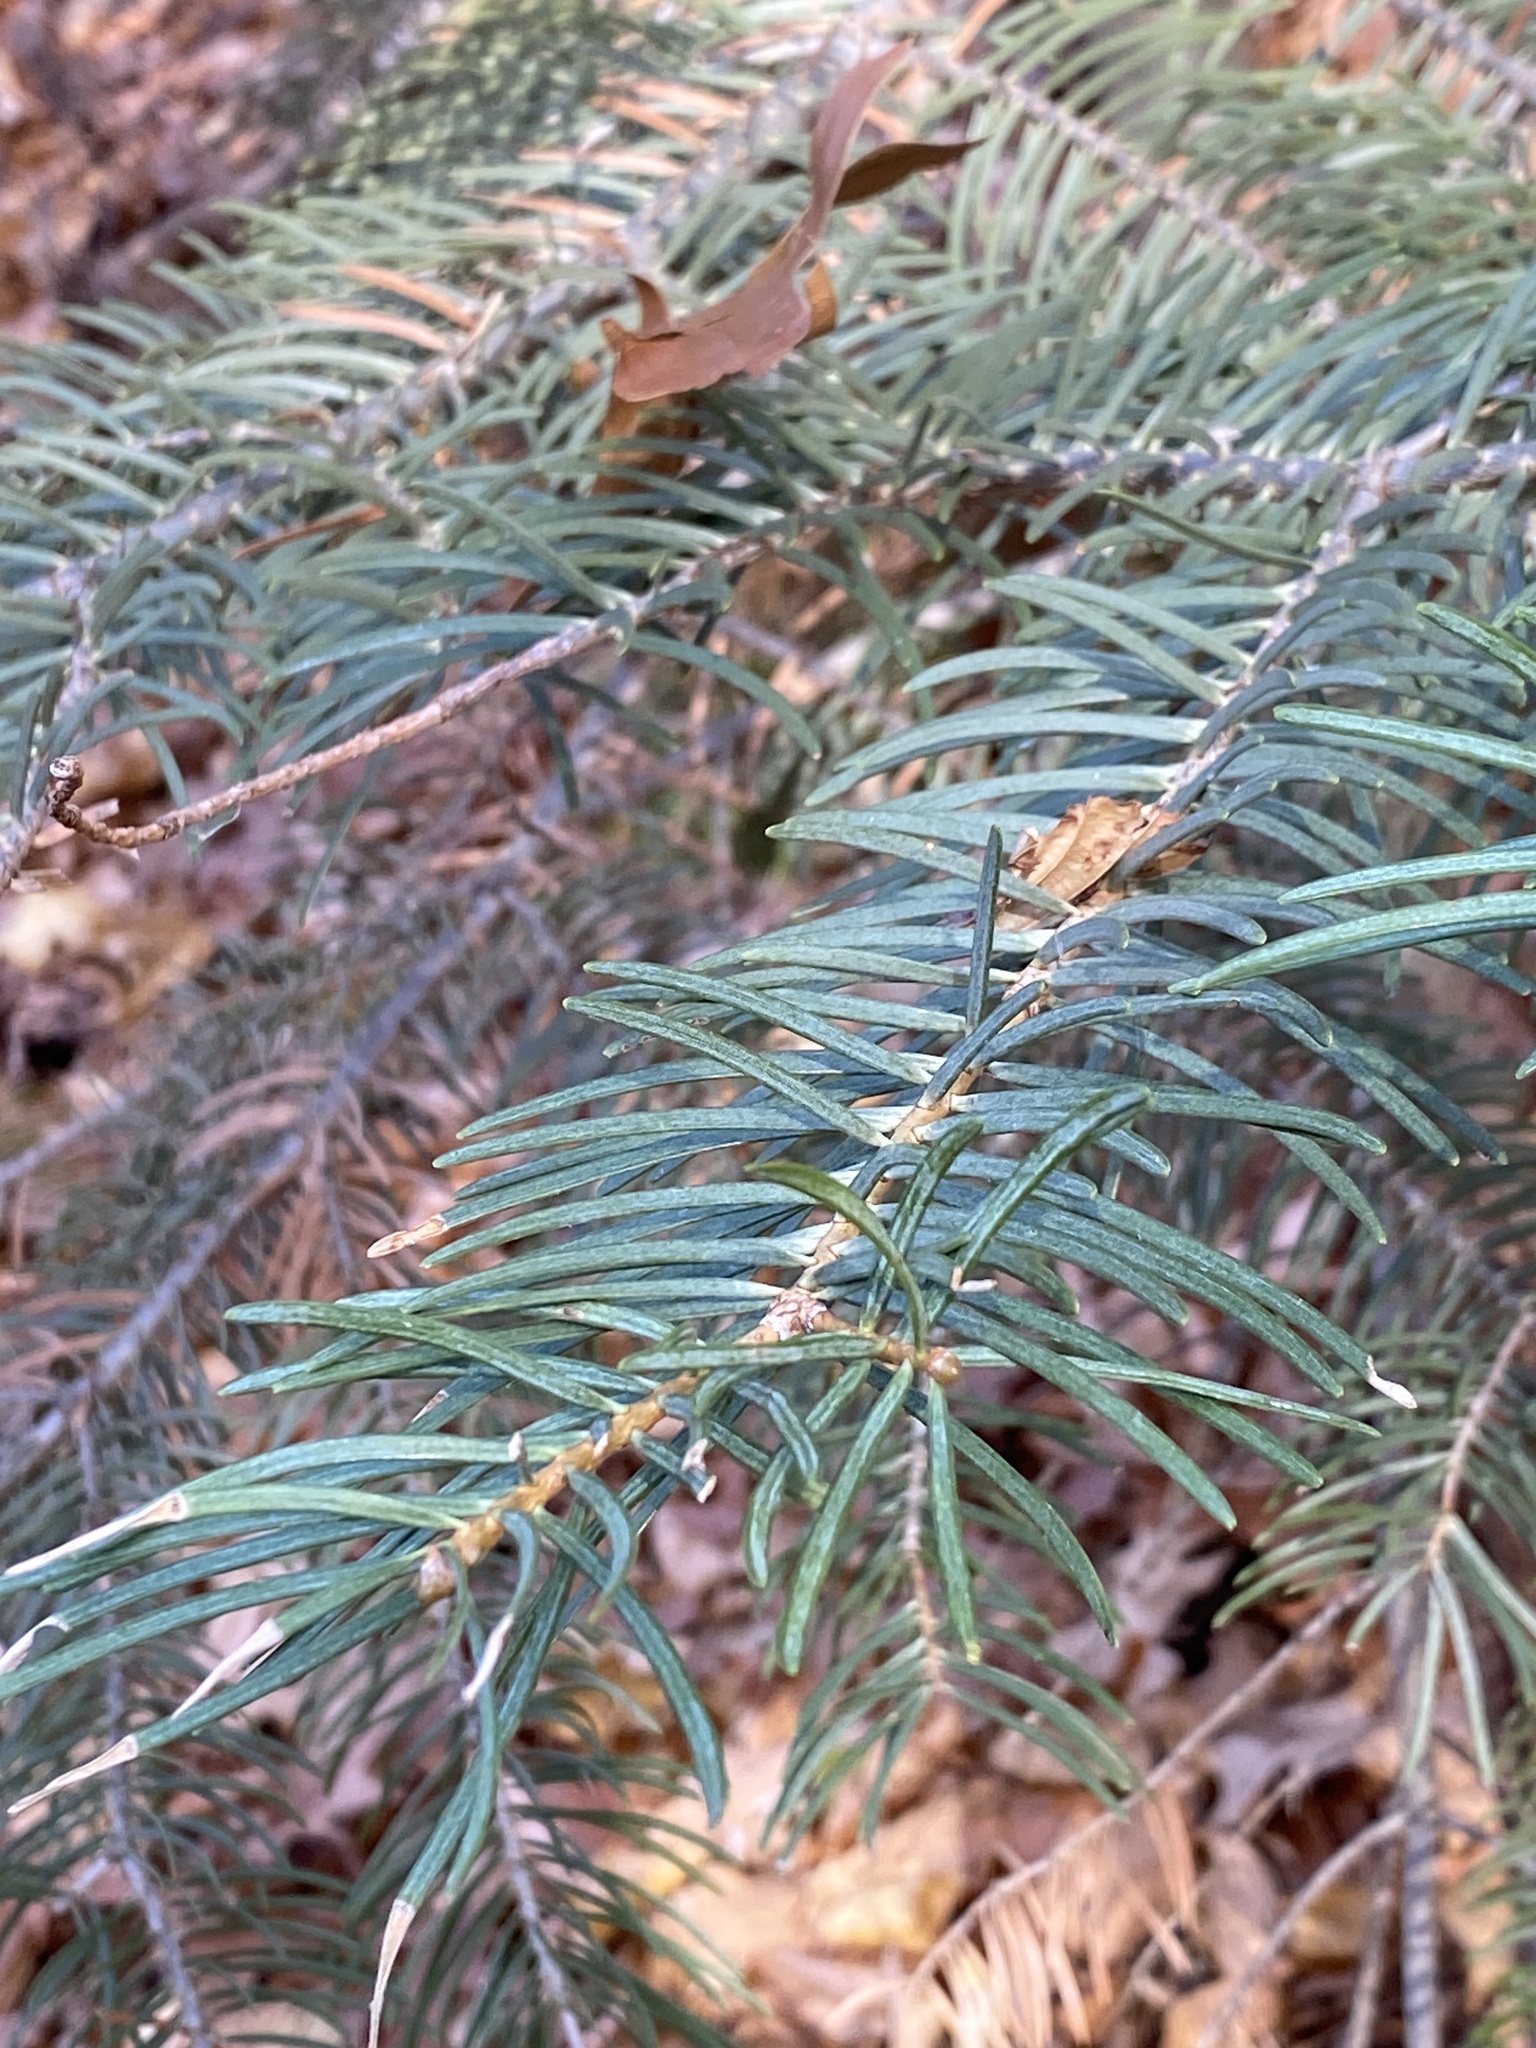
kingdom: Plantae
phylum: Tracheophyta
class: Pinopsida
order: Pinales
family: Pinaceae
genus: Abies
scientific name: Abies concolor
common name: Colorado fir
